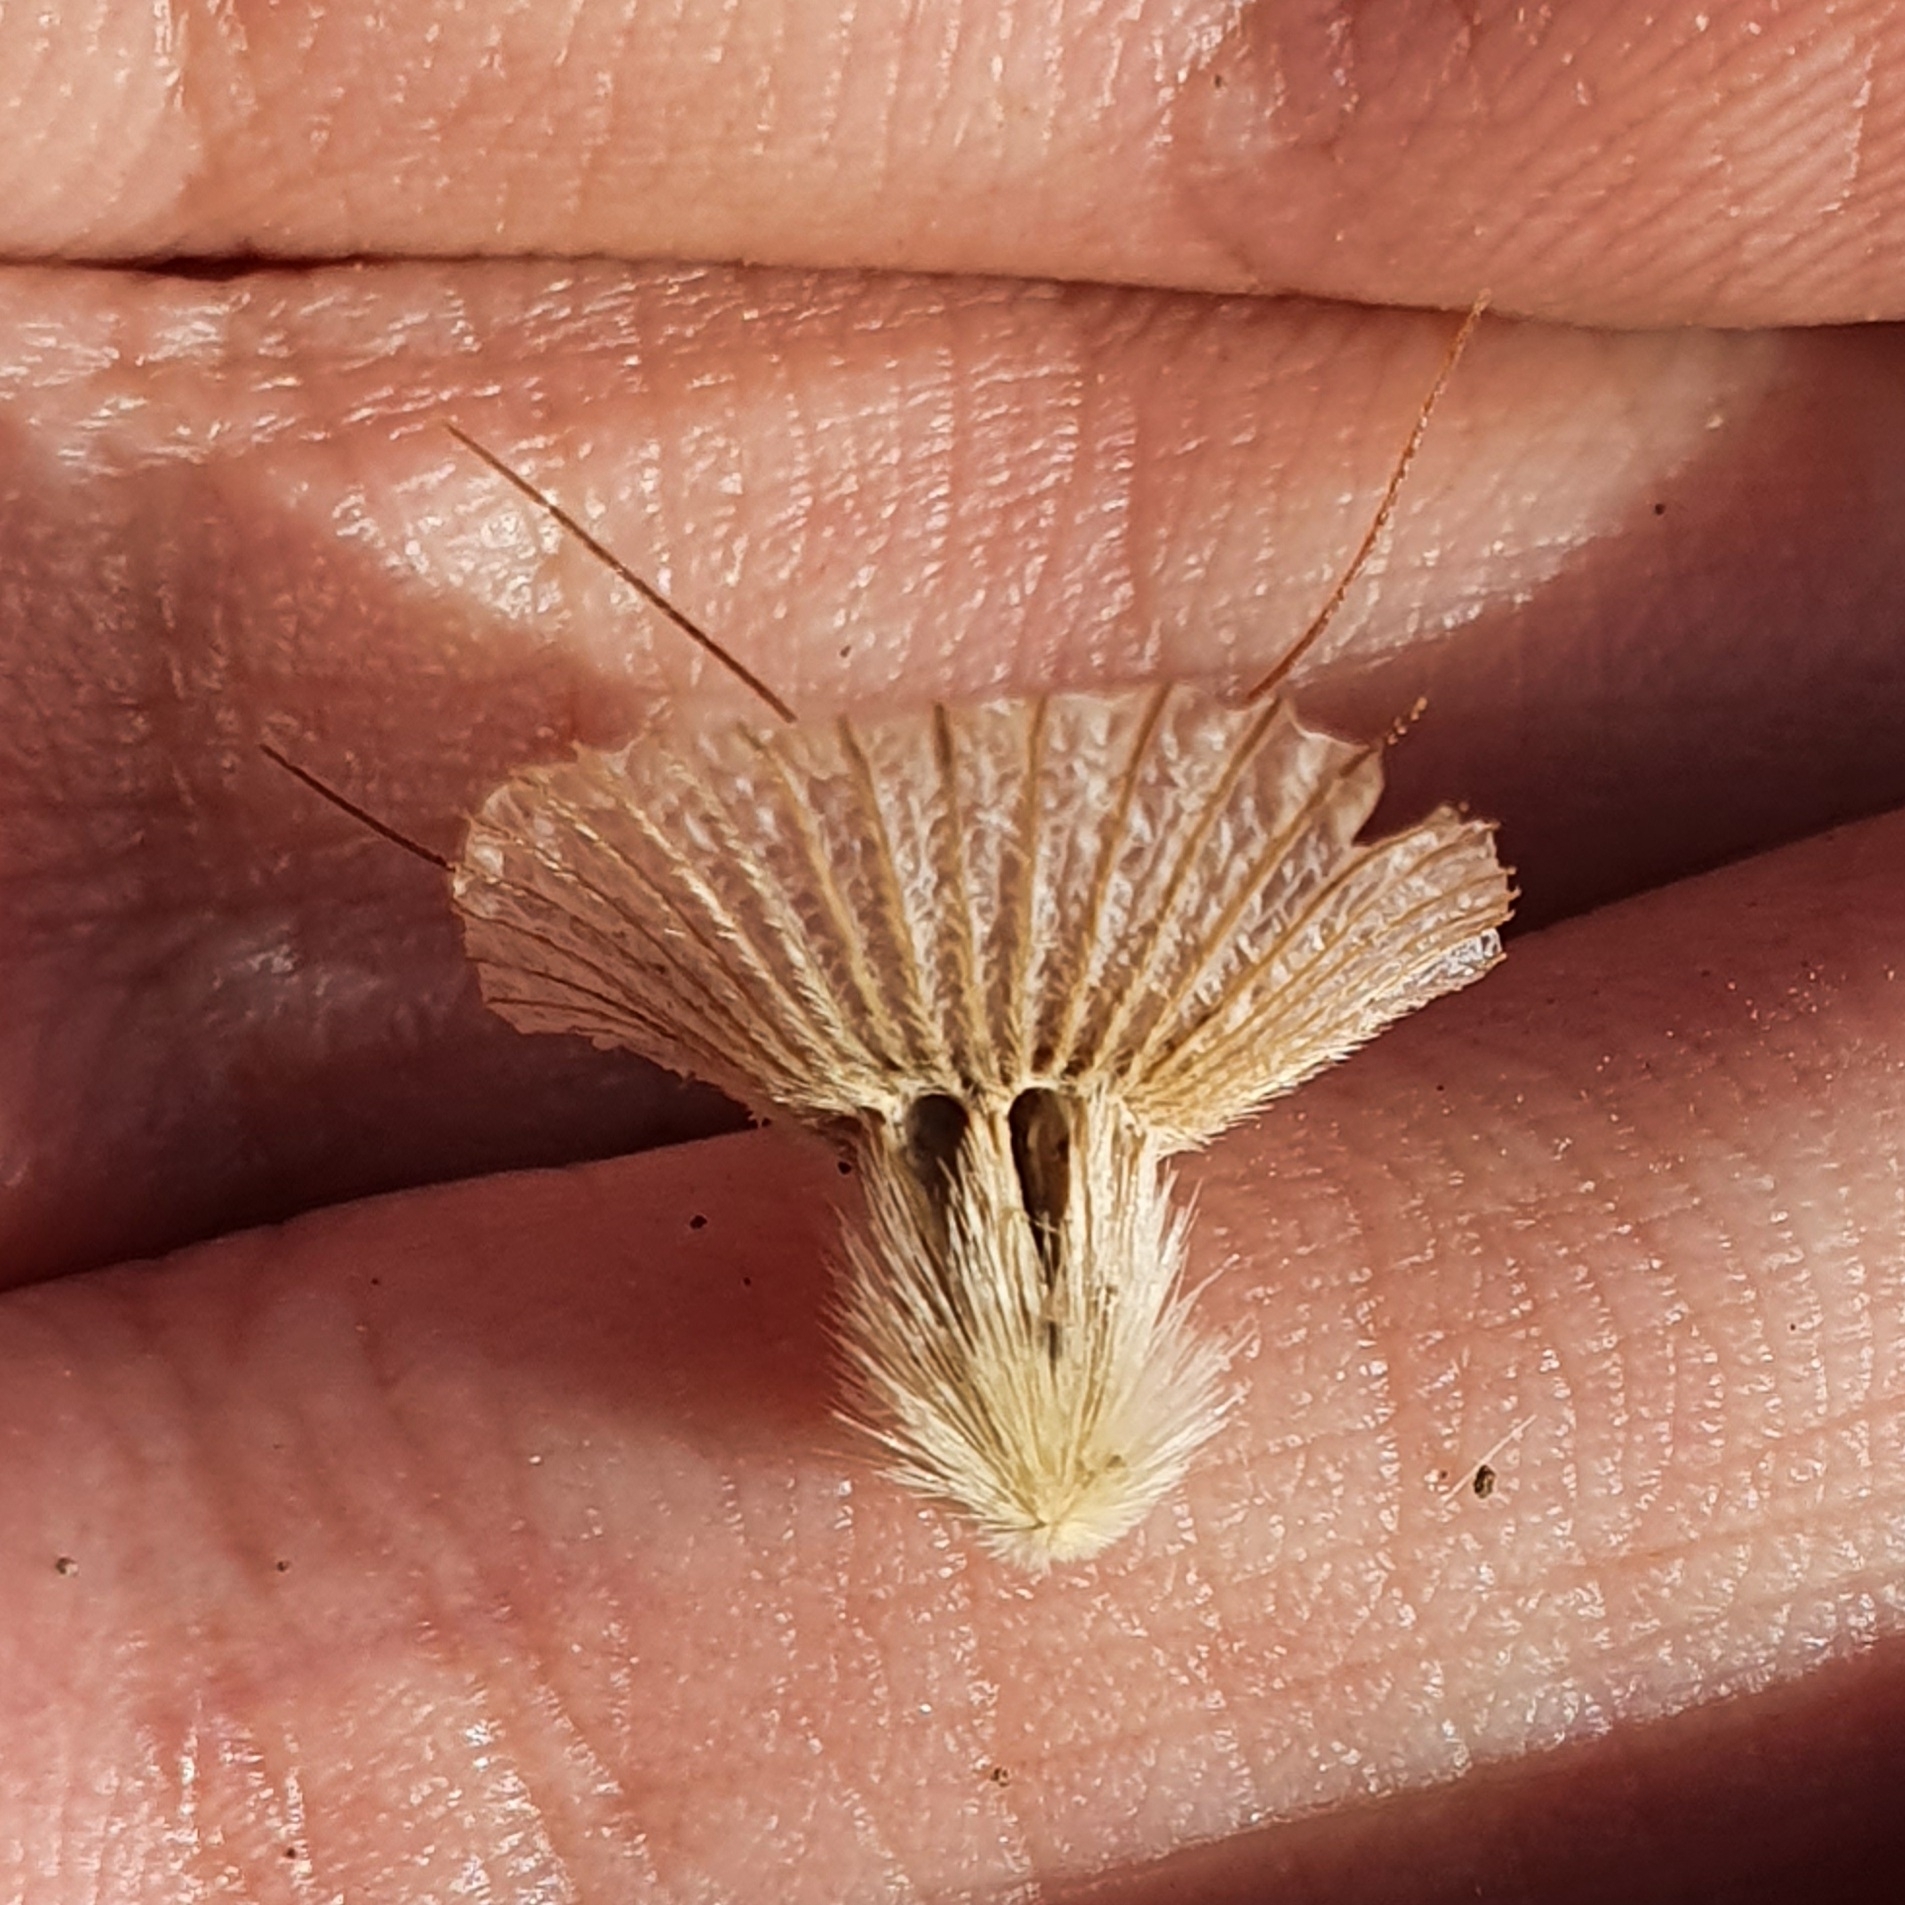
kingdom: Plantae
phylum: Tracheophyta
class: Magnoliopsida
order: Dipsacales
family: Caprifoliaceae
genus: Lomelosia
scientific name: Lomelosia stellata
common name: Teasel
